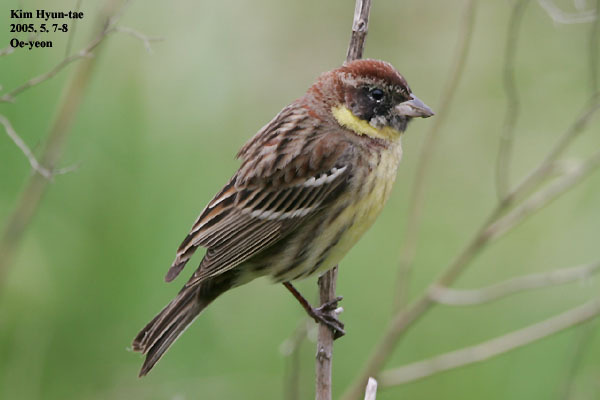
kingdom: Animalia
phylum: Chordata
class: Aves
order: Passeriformes
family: Emberizidae
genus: Emberiza
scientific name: Emberiza aureola
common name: Yellow-breasted bunting
